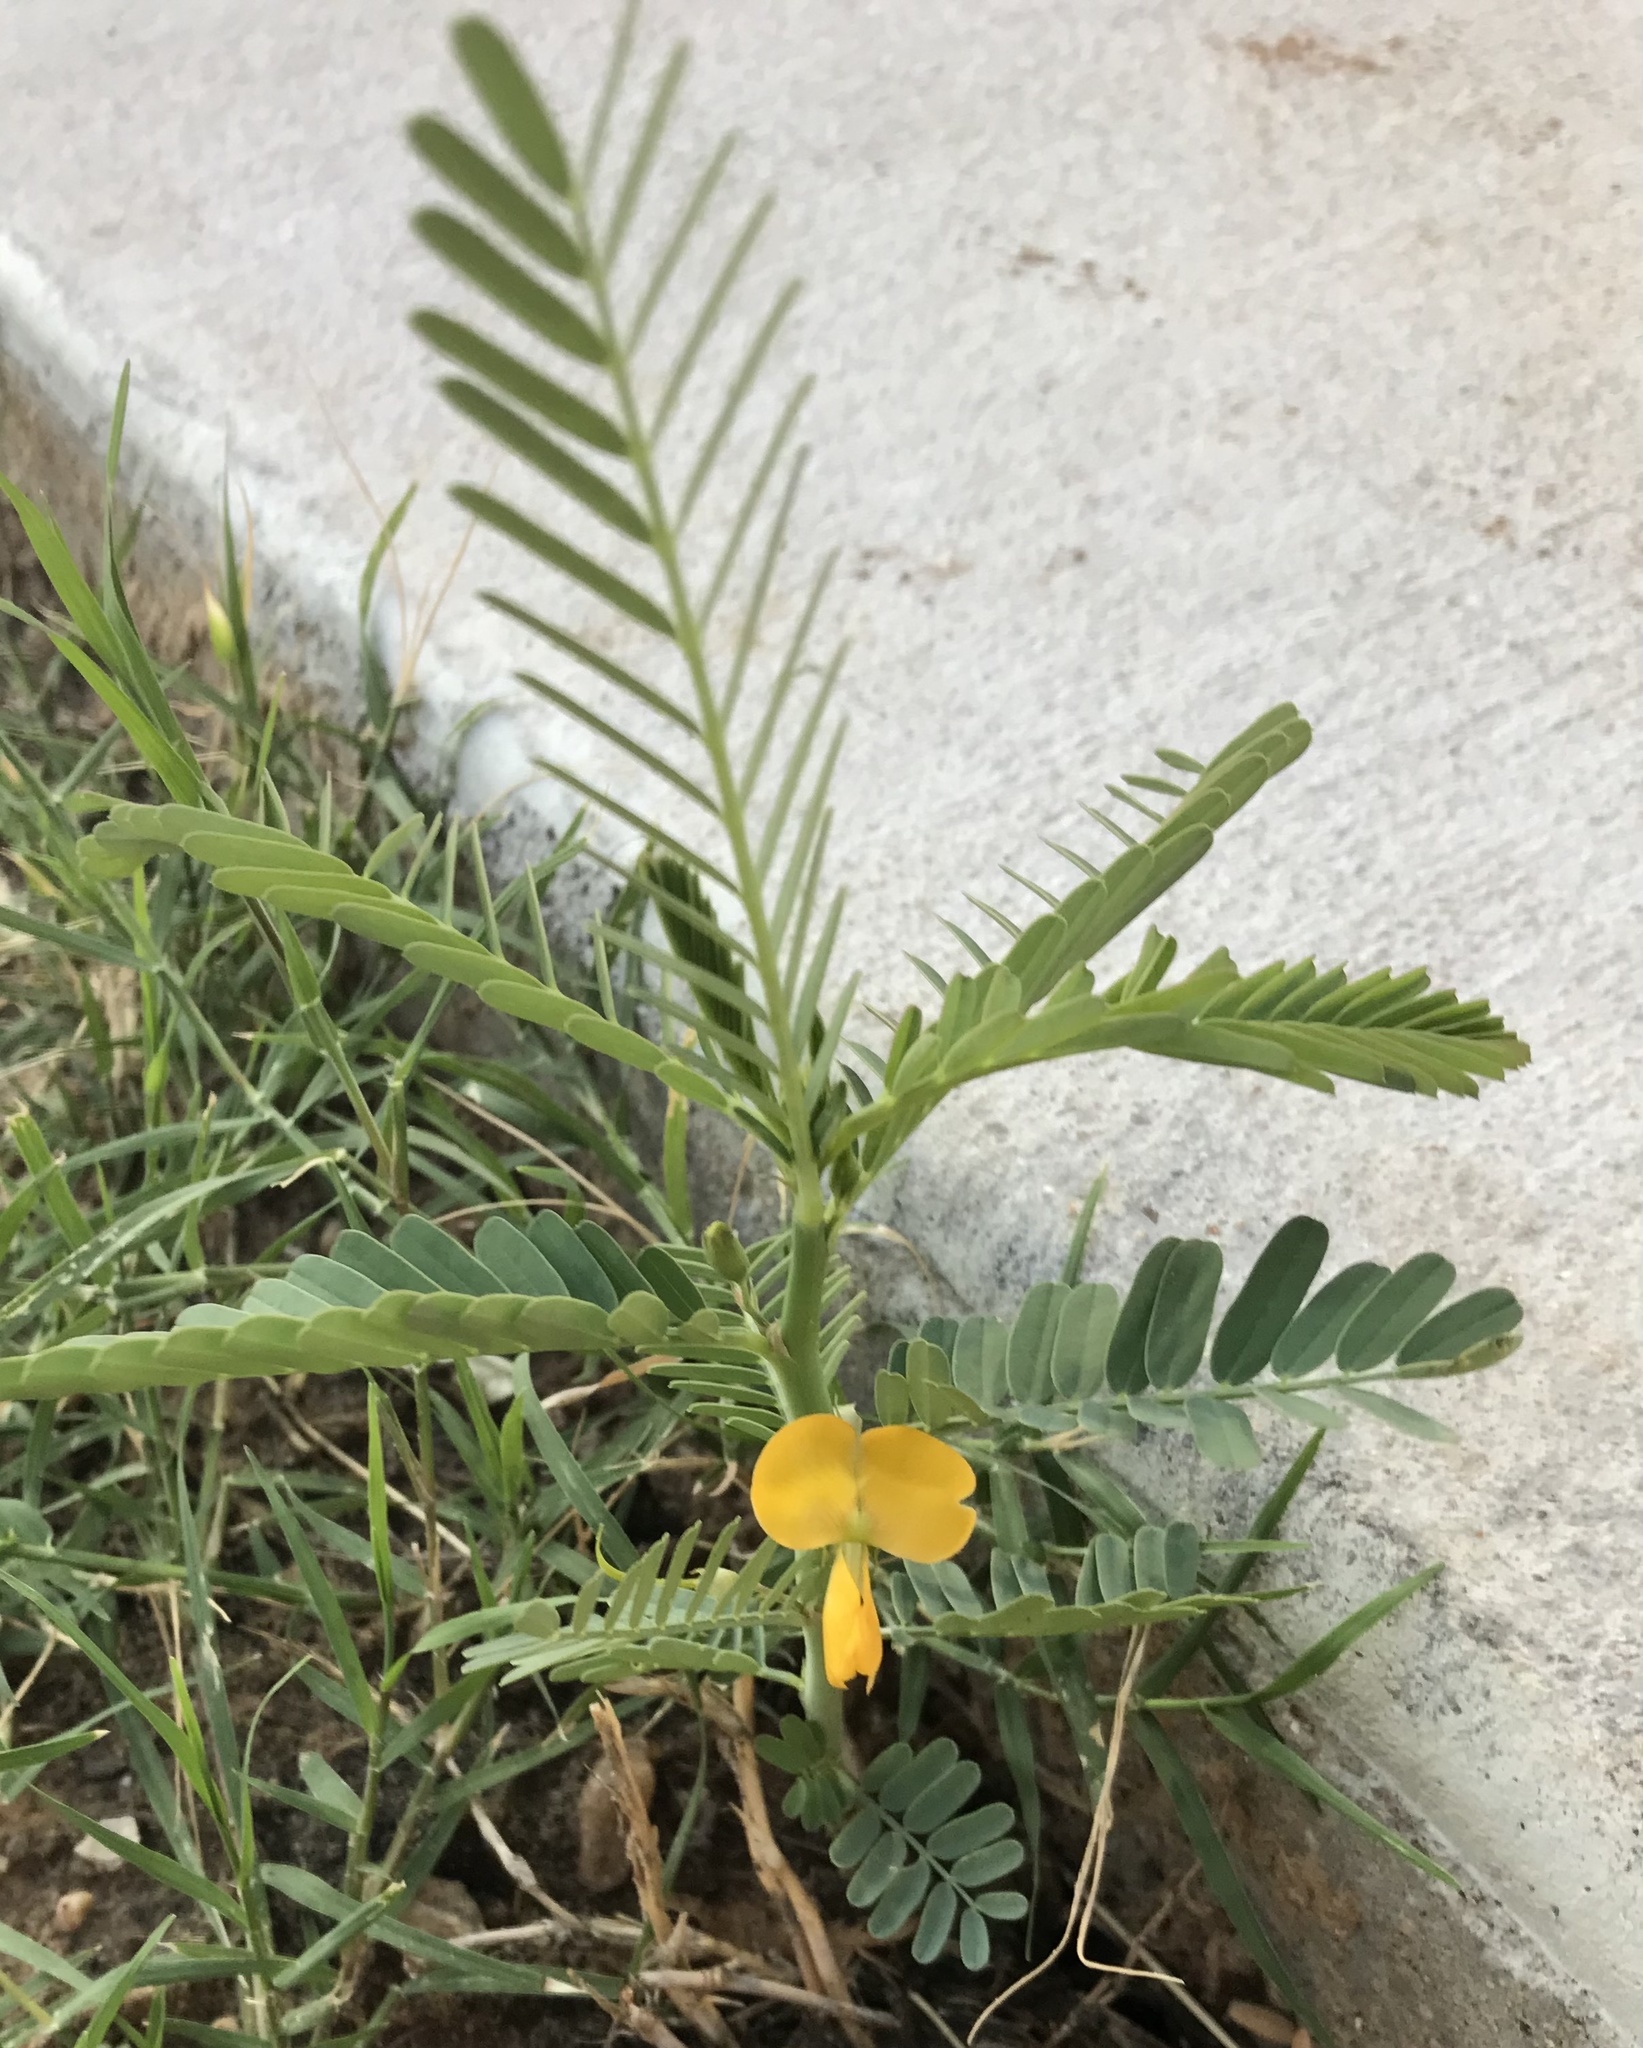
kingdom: Plantae
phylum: Tracheophyta
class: Magnoliopsida
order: Fabales
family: Fabaceae
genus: Sesbania
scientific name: Sesbania herbacea
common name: Bigpod sesbania
